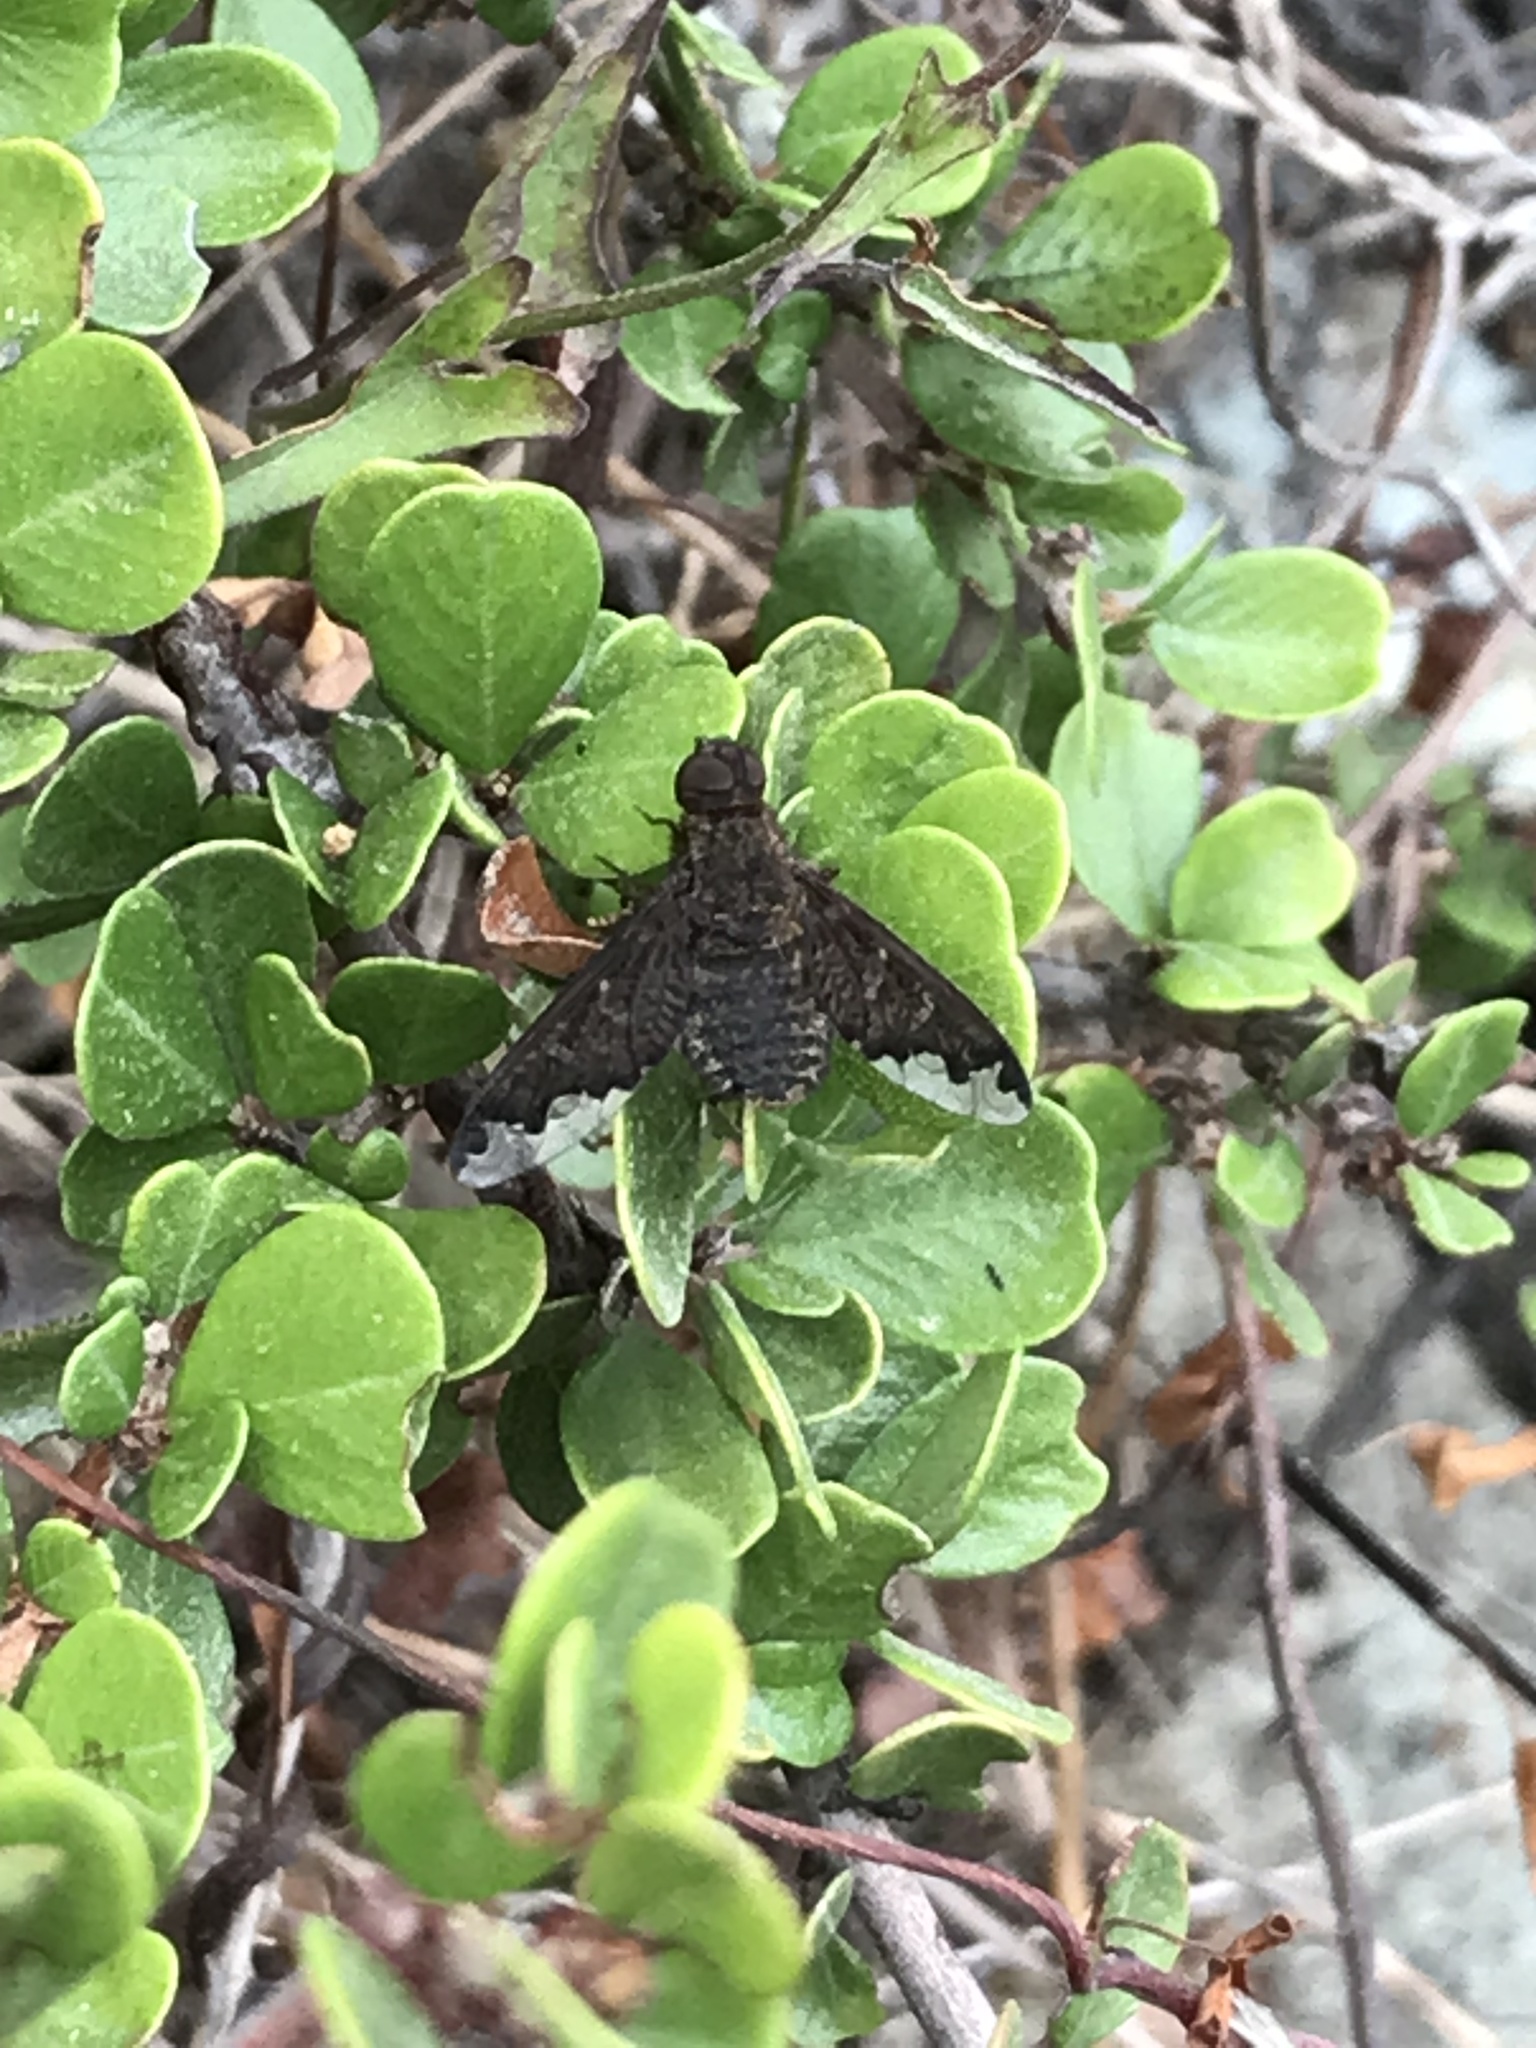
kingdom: Animalia
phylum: Arthropoda
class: Insecta
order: Diptera
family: Bombyliidae
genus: Hemipenthes
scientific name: Hemipenthes sinuosus
